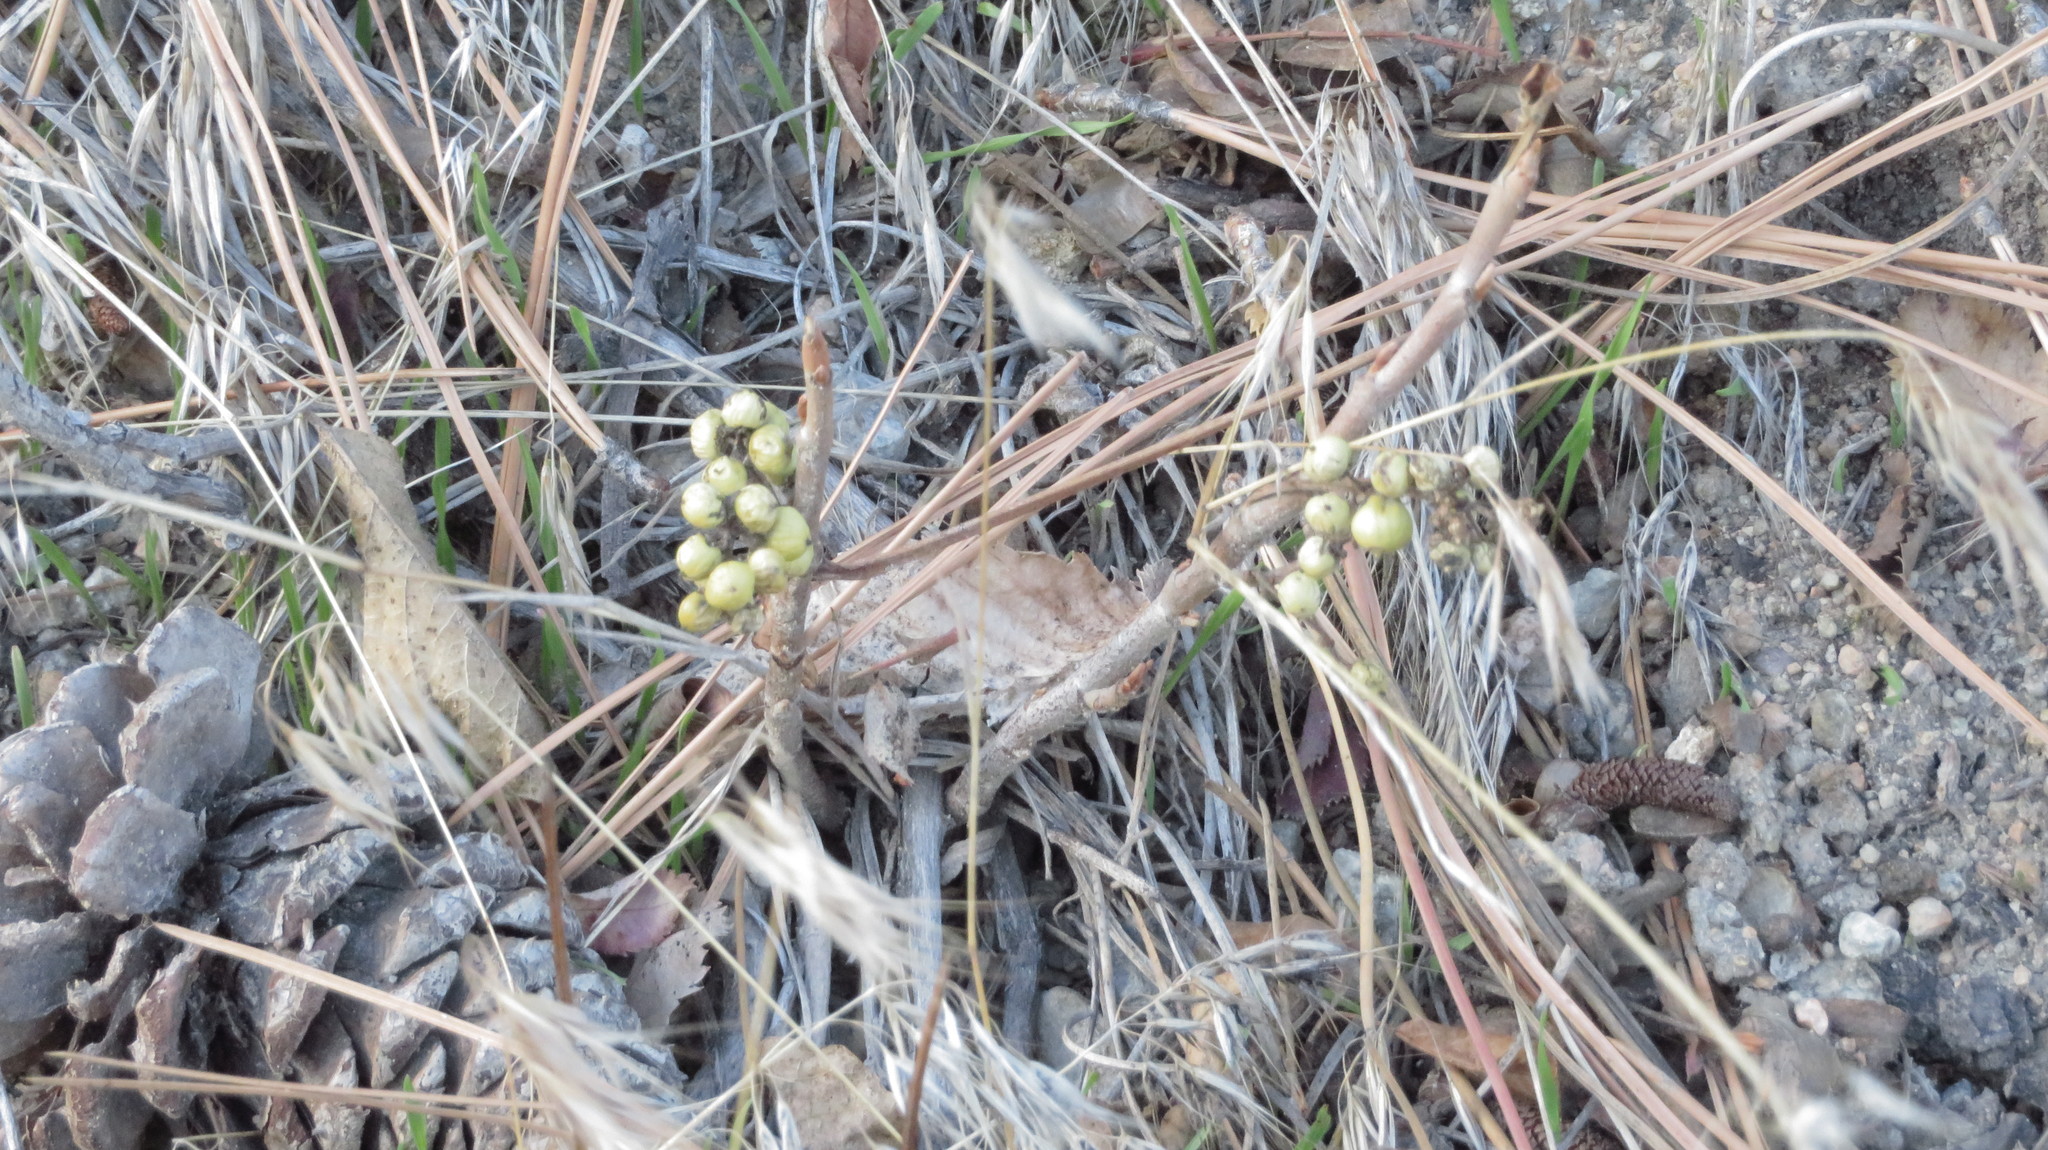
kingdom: Plantae
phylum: Tracheophyta
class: Magnoliopsida
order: Sapindales
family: Anacardiaceae
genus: Toxicodendron
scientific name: Toxicodendron rydbergii
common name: Rydberg's poison-ivy
